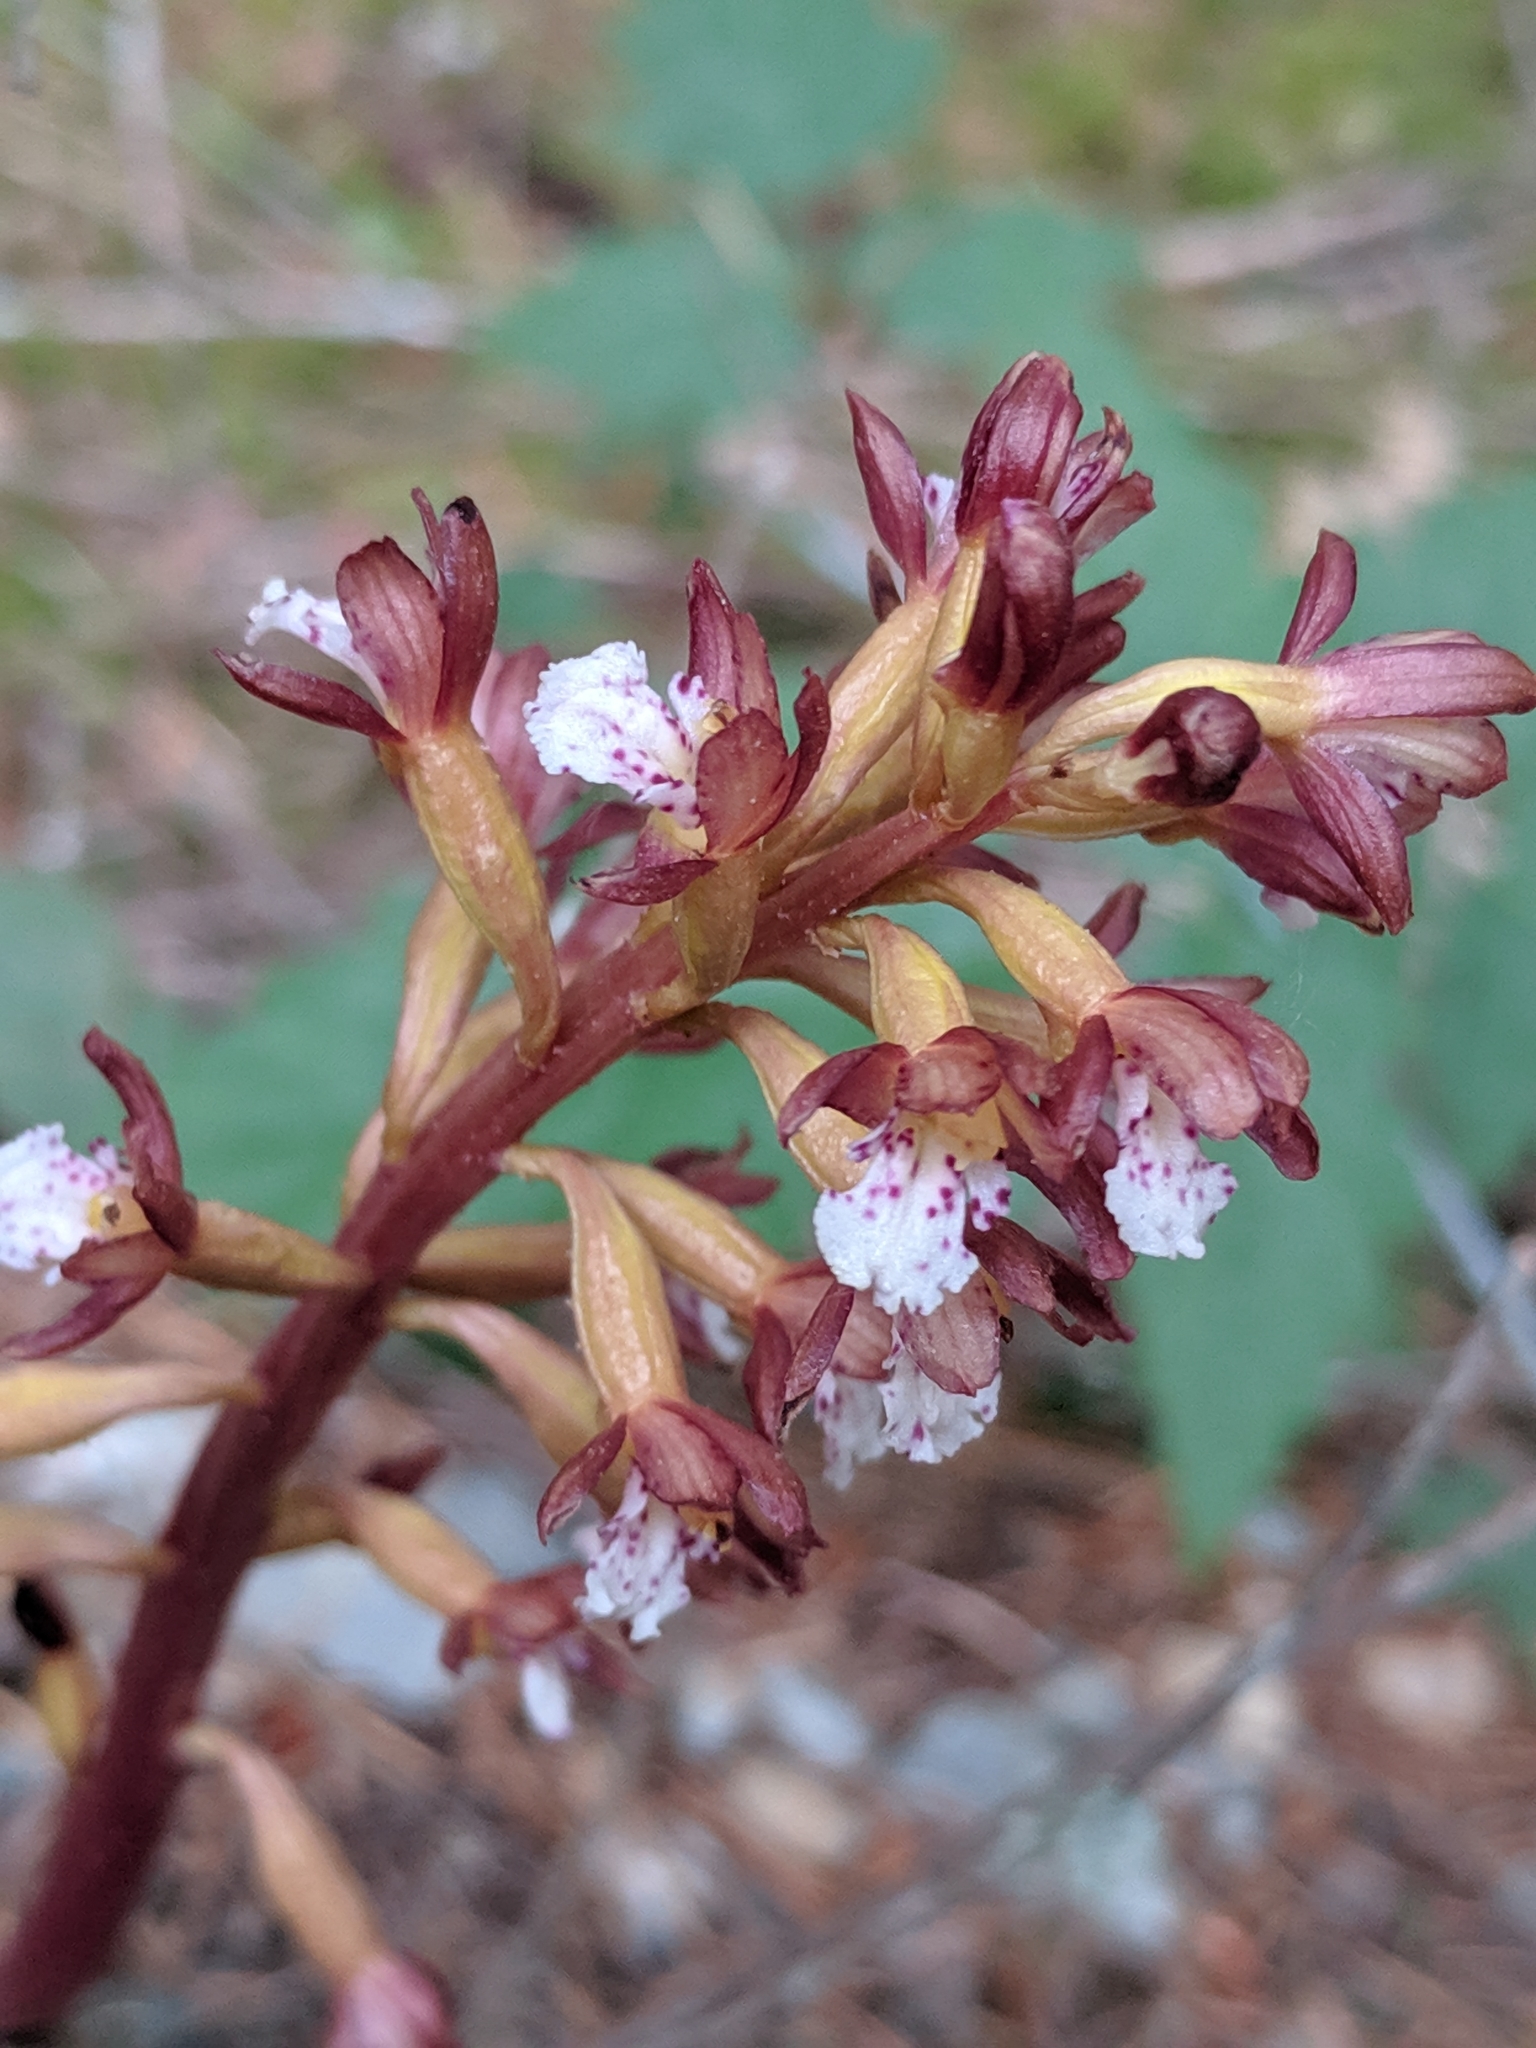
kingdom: Plantae
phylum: Tracheophyta
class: Liliopsida
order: Asparagales
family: Orchidaceae
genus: Corallorhiza
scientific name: Corallorhiza maculata
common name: Spotted coralroot
